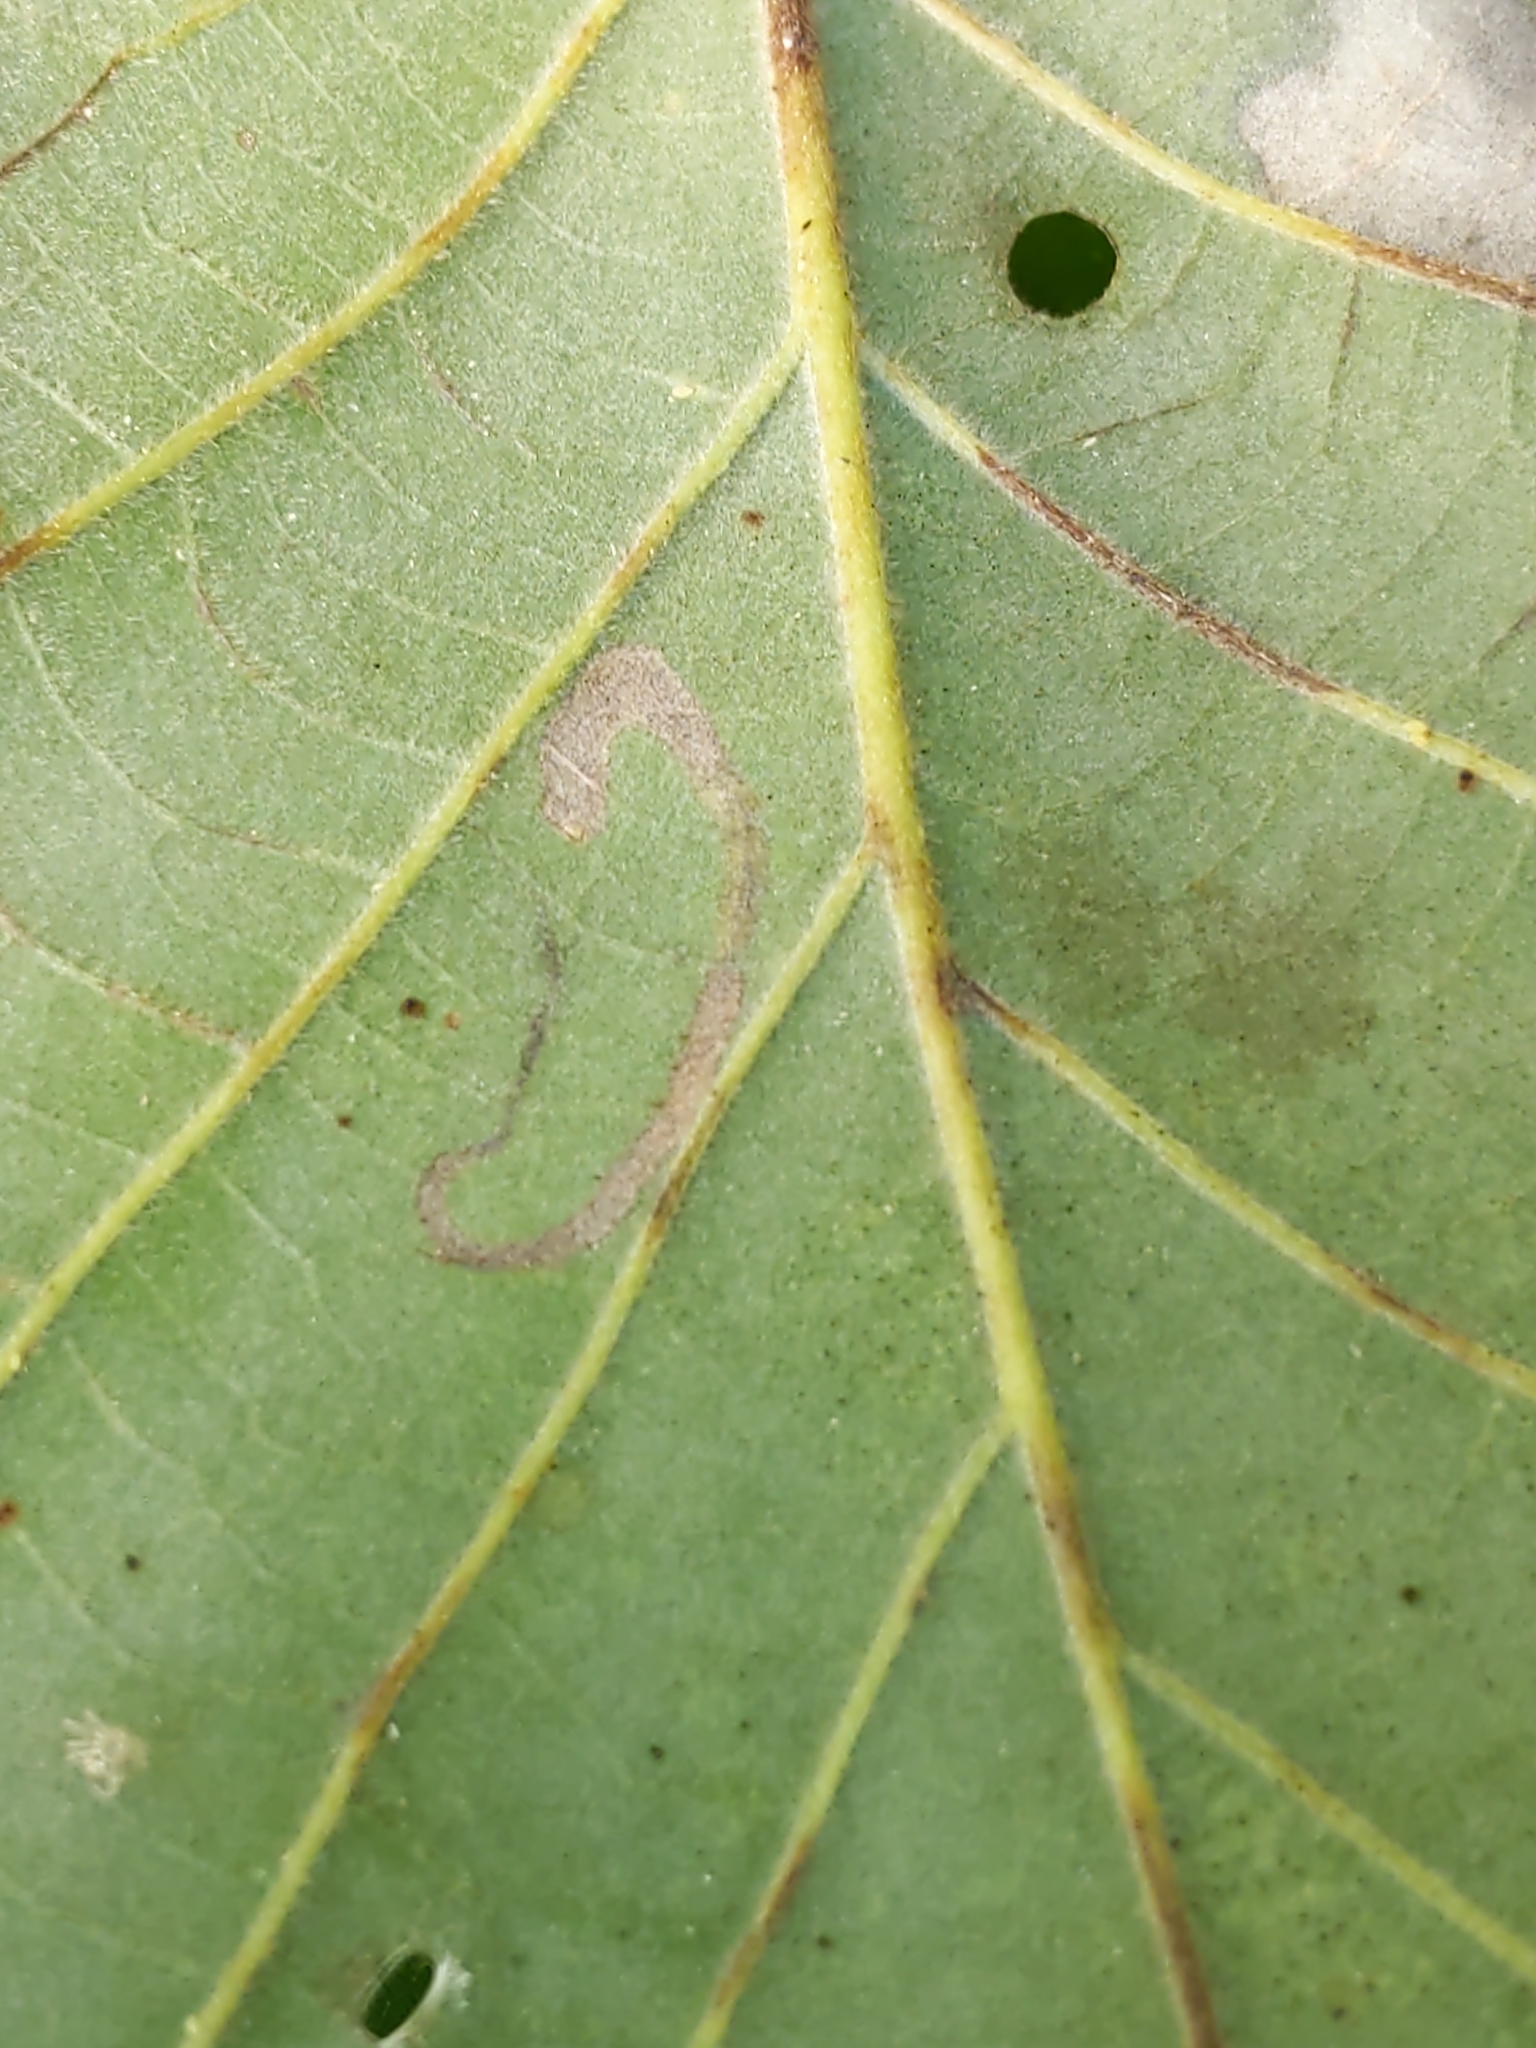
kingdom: Animalia
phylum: Arthropoda
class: Insecta
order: Lepidoptera
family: Nepticulidae
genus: Stigmella
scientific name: Stigmella
